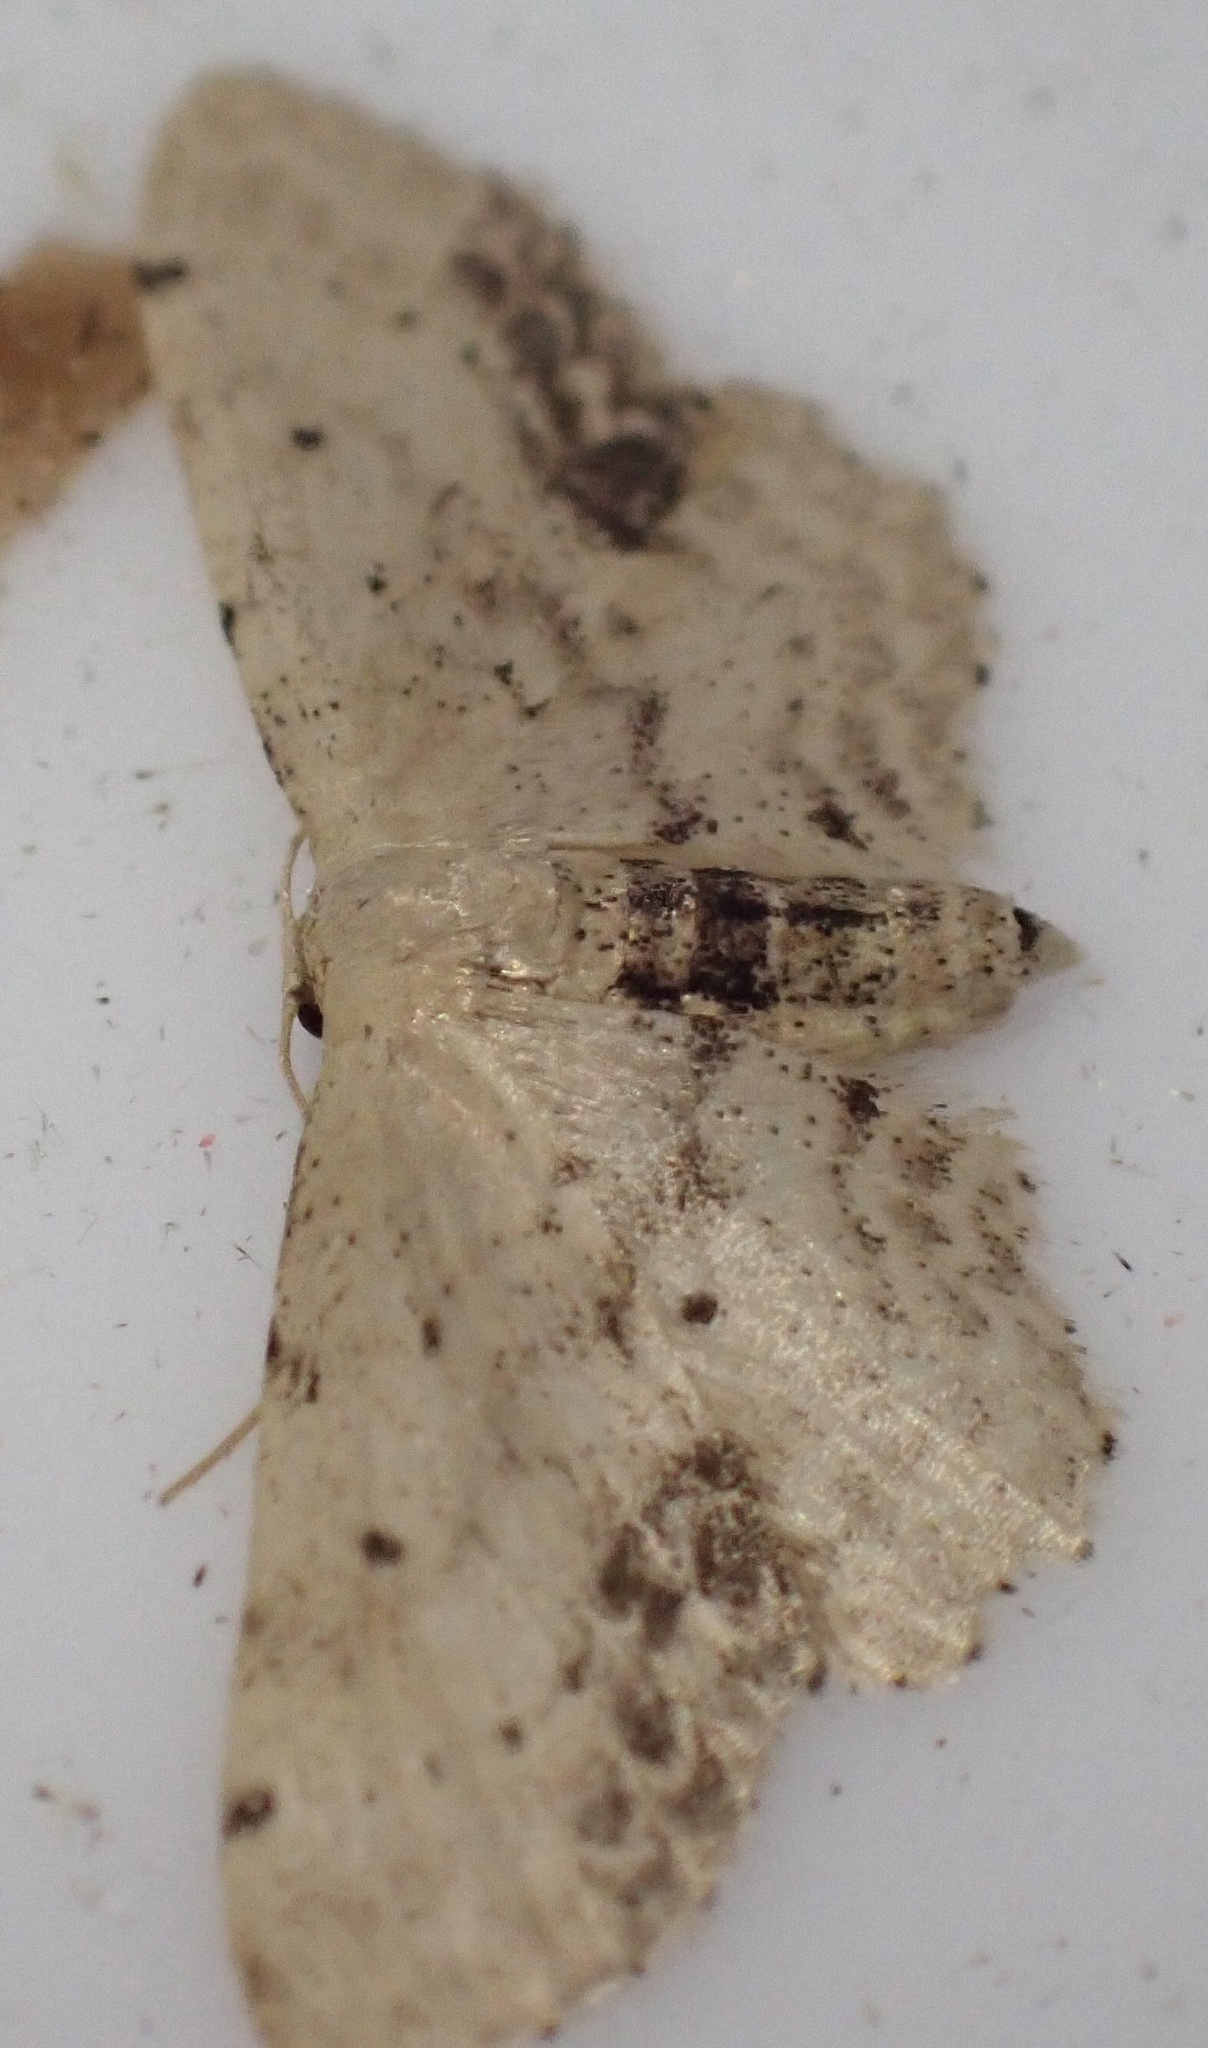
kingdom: Animalia
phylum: Arthropoda
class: Insecta
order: Lepidoptera
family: Geometridae
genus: Idaea
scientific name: Idaea dimidiata
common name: Single-dotted wave
